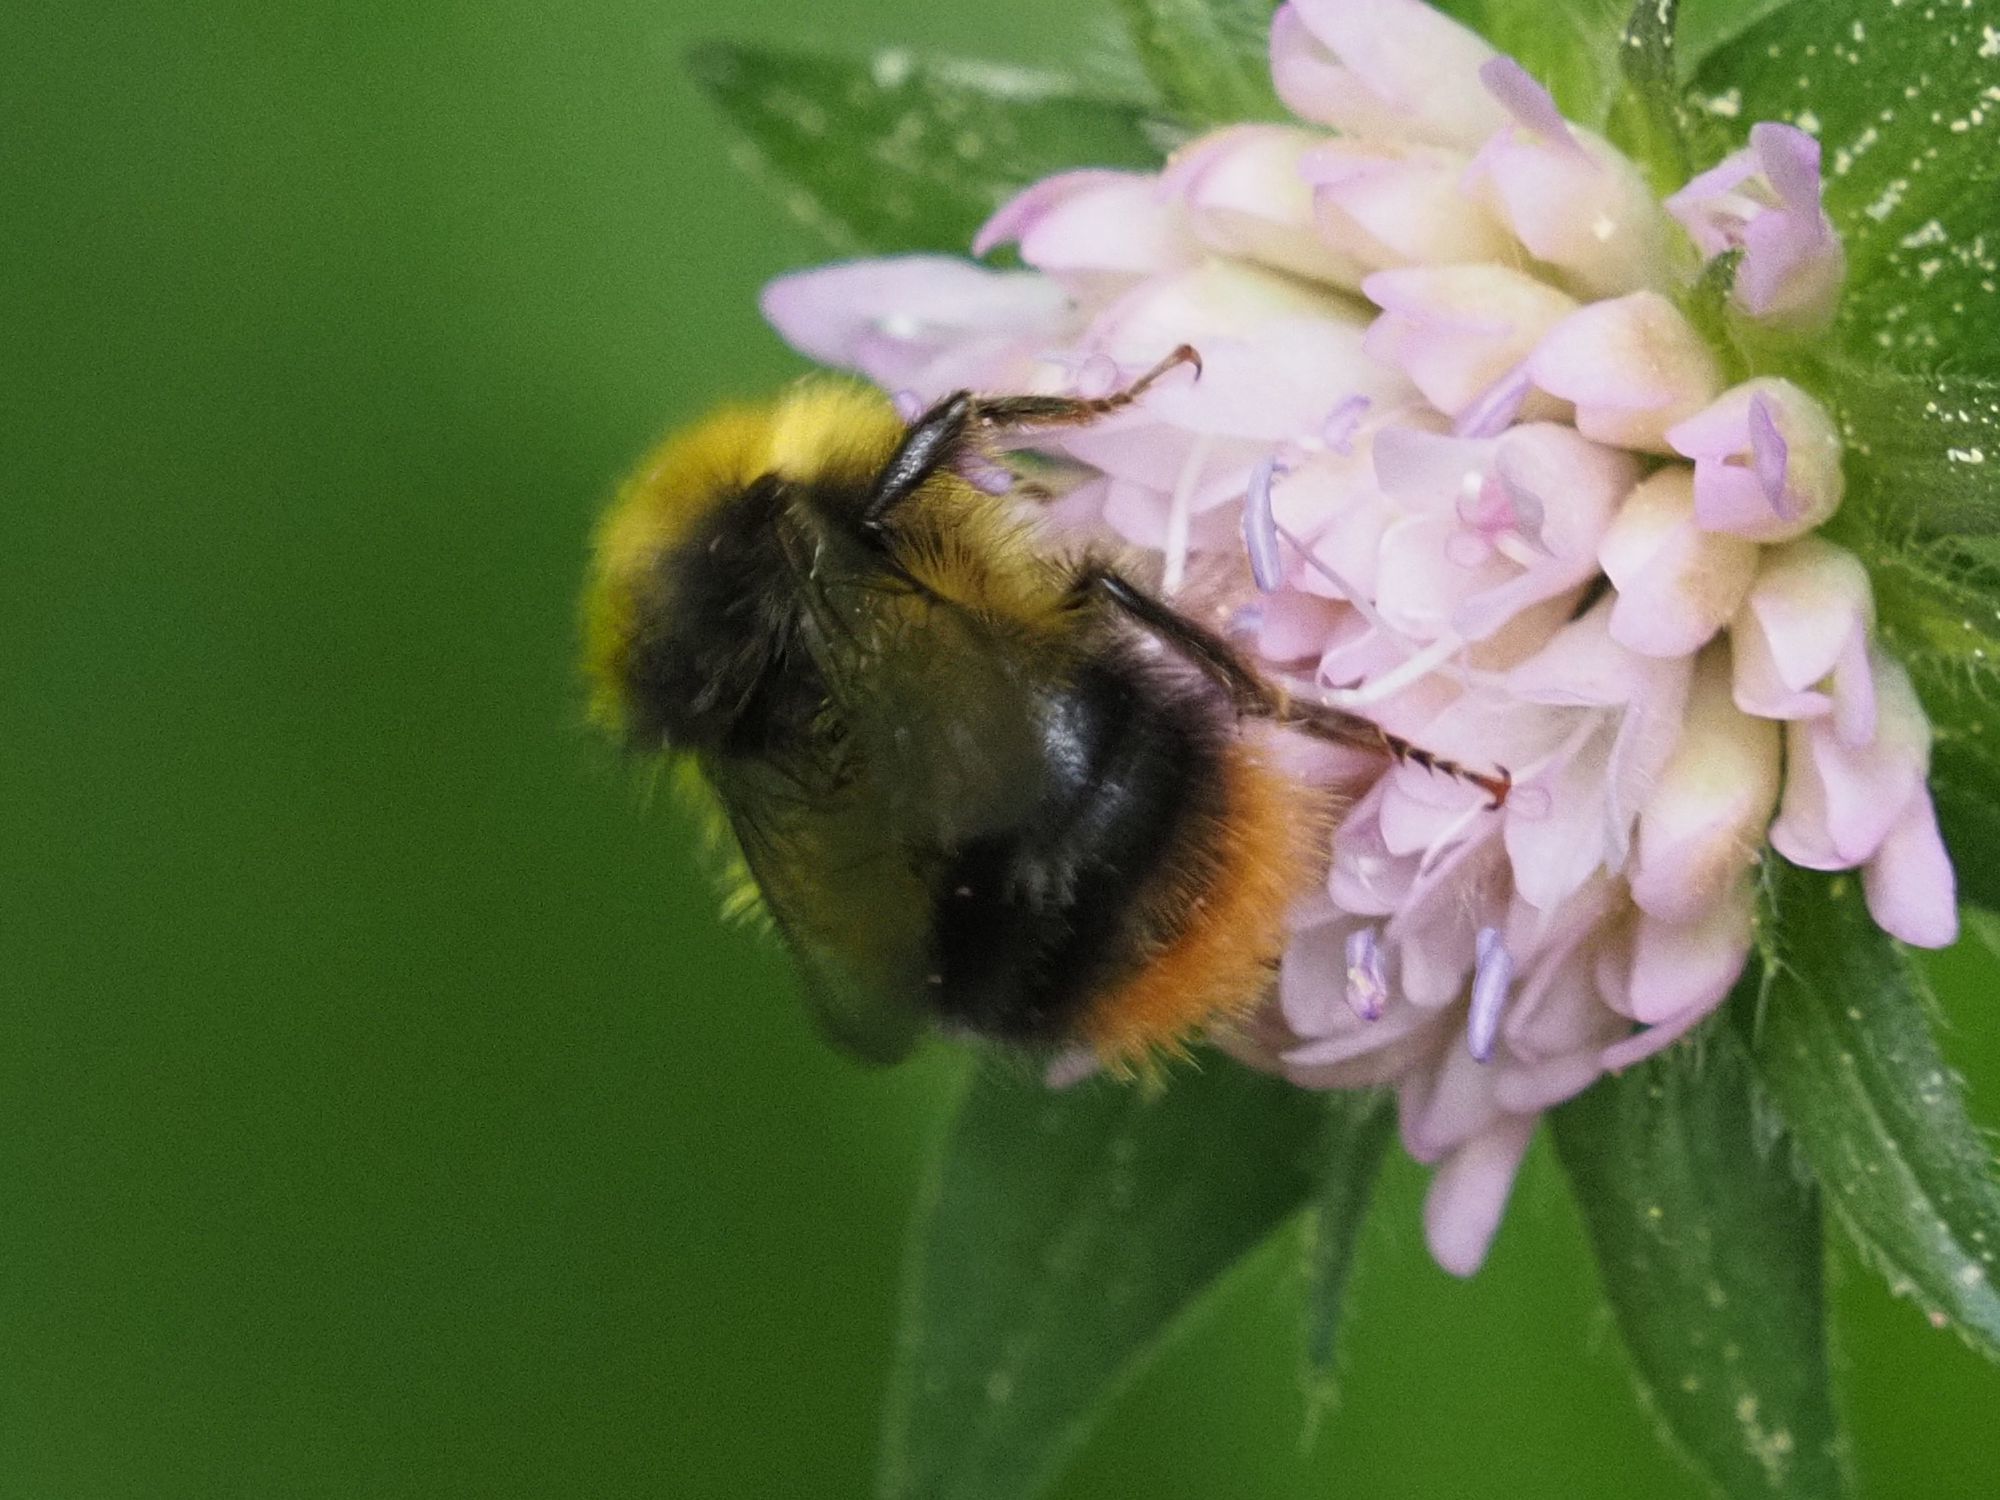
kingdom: Animalia
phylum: Arthropoda
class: Insecta
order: Hymenoptera
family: Apidae
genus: Bombus
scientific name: Bombus pratorum
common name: Early humble-bee
